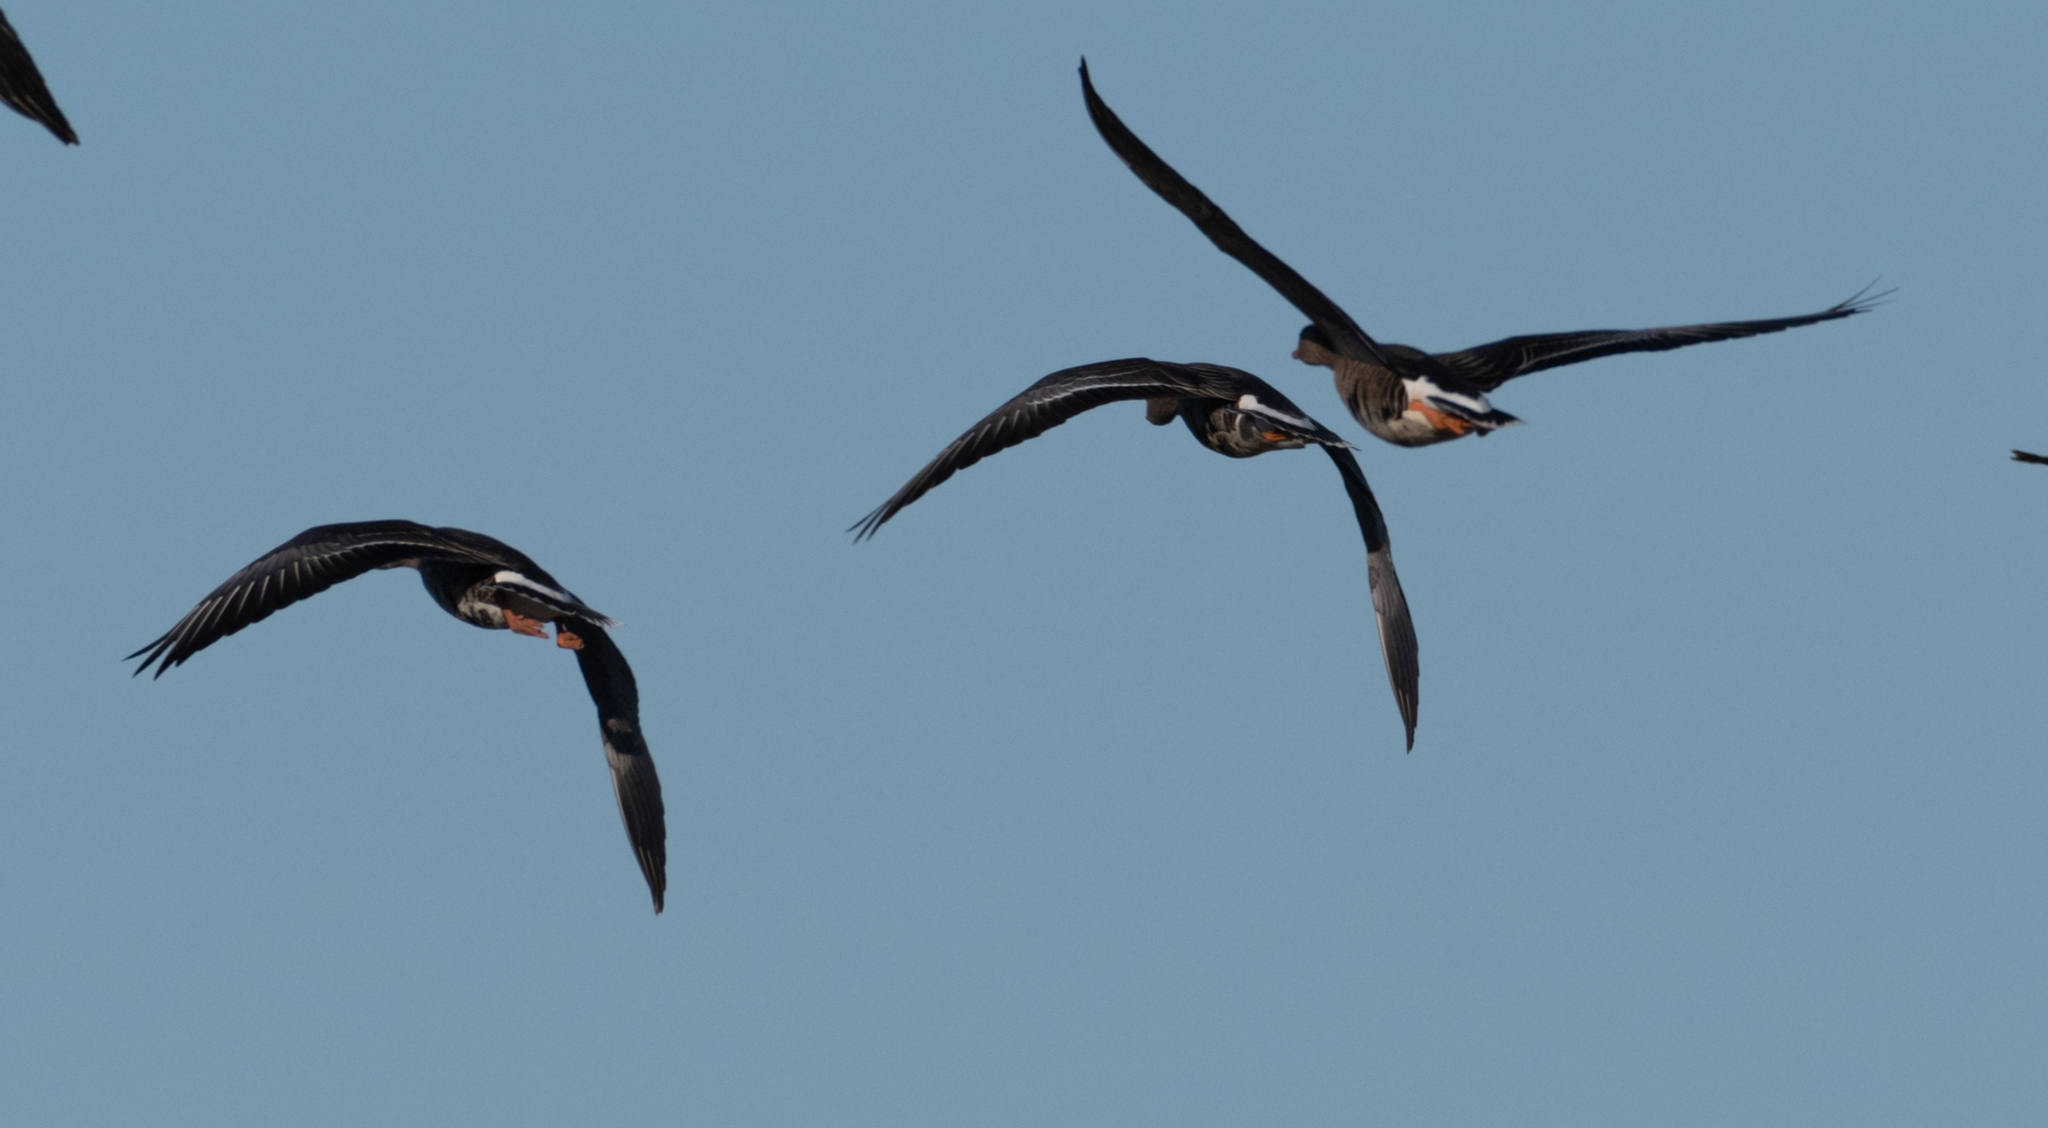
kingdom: Animalia
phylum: Chordata
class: Aves
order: Anseriformes
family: Anatidae
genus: Anser
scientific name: Anser albifrons
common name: Greater white-fronted goose
